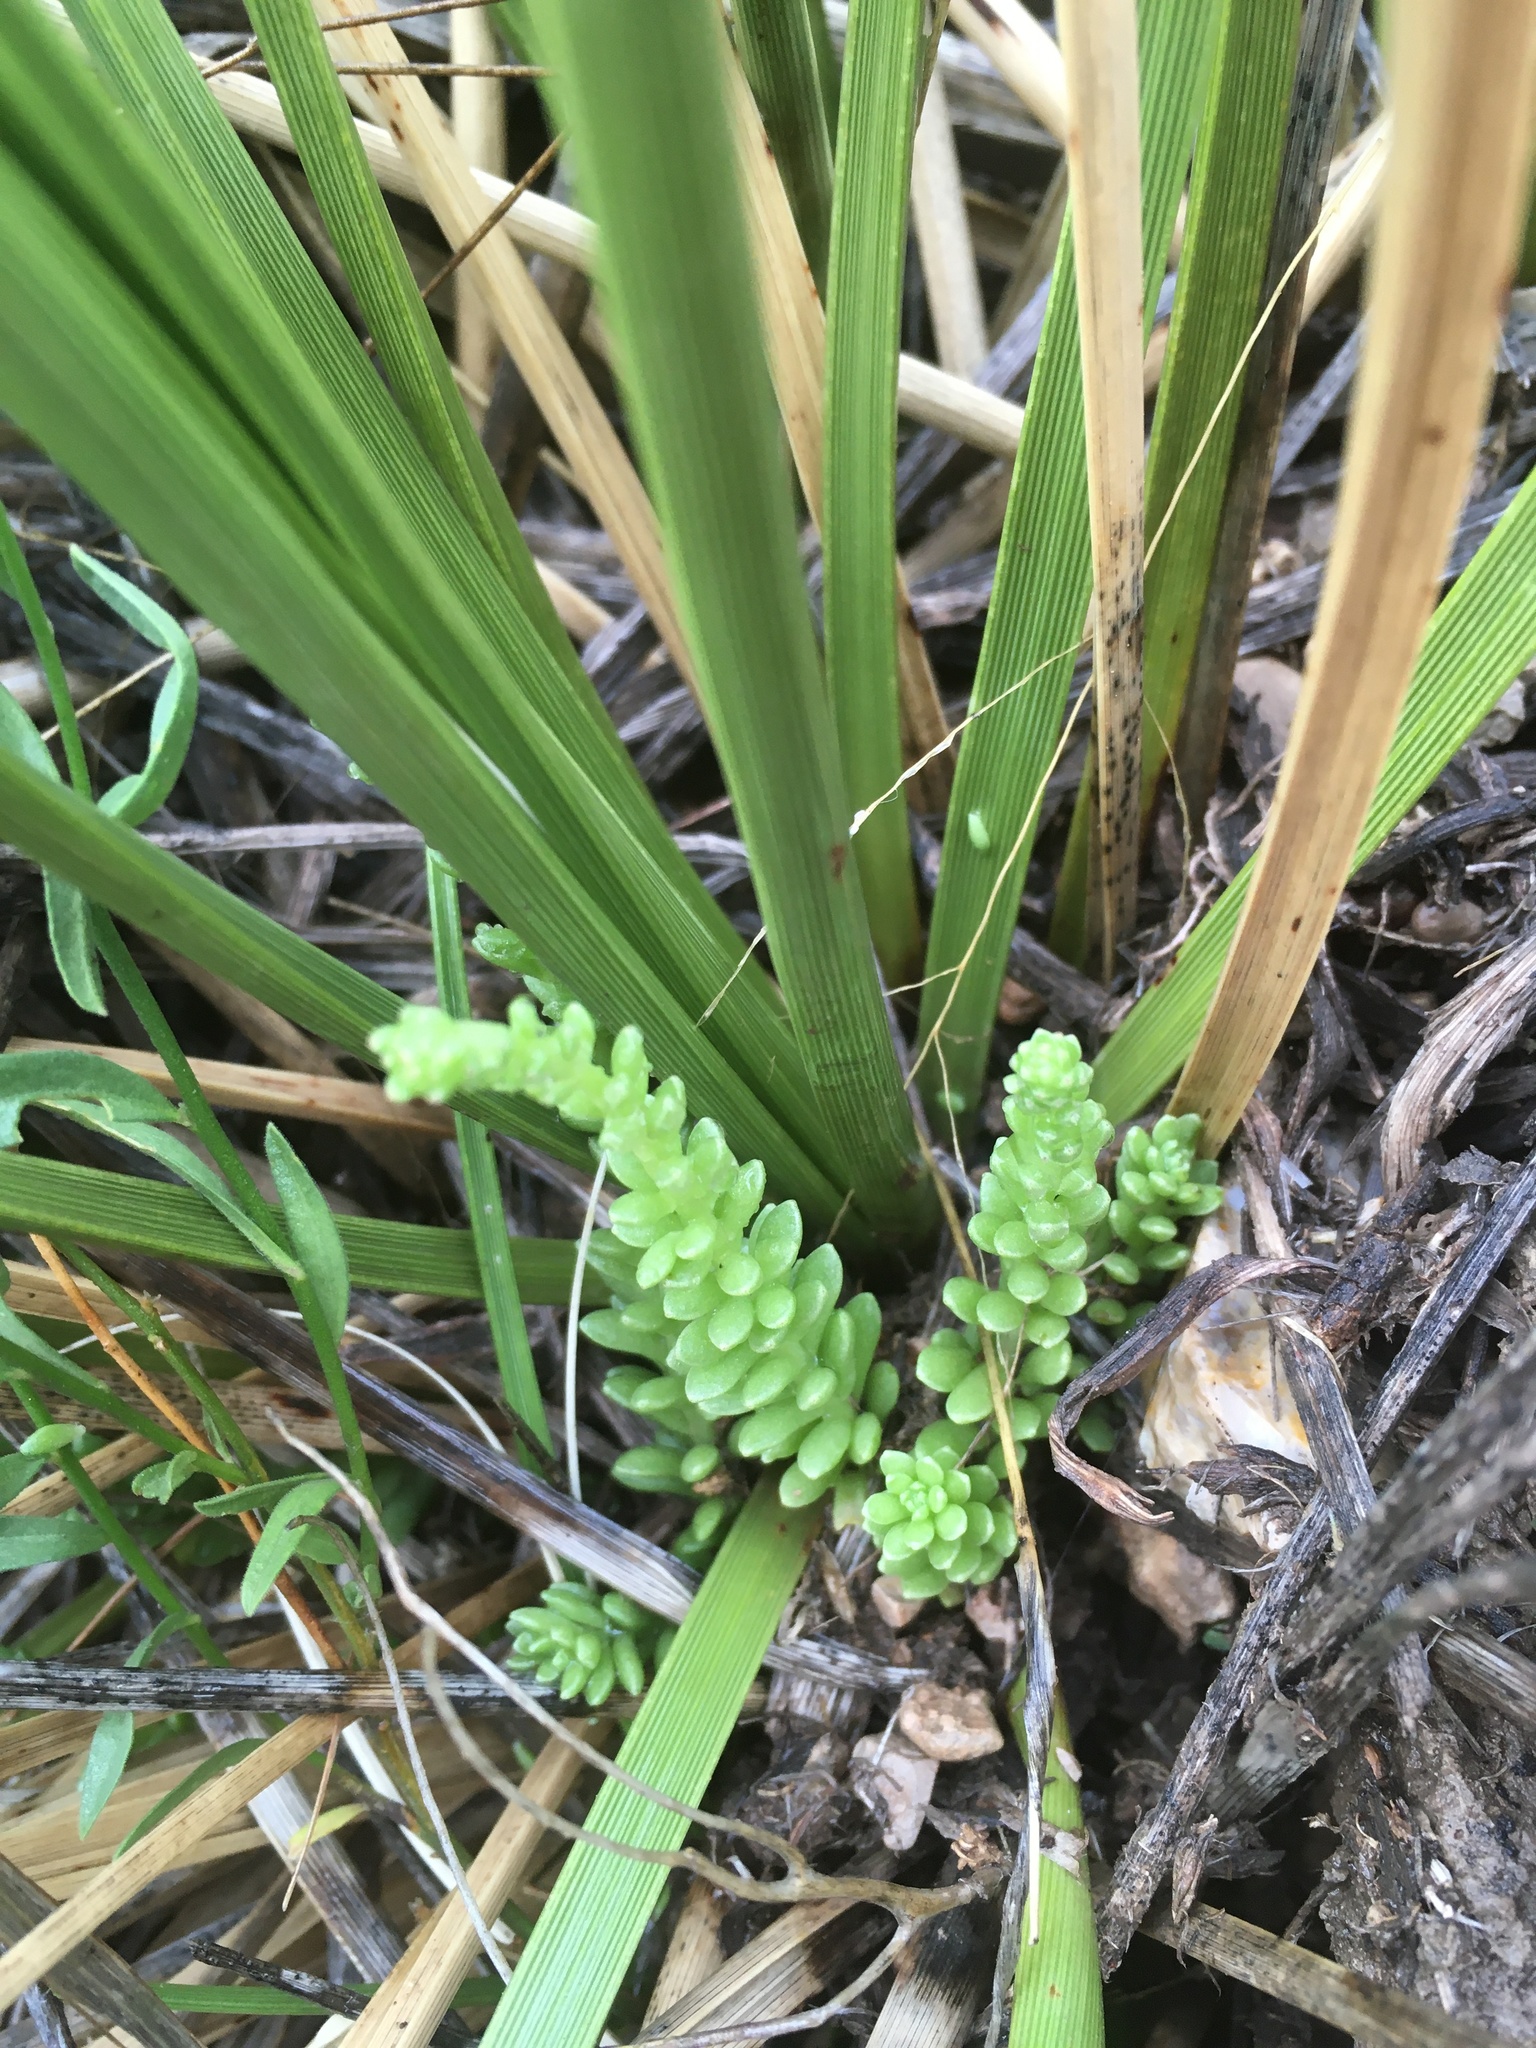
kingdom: Plantae
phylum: Tracheophyta
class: Magnoliopsida
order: Saxifragales
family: Crassulaceae
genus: Sedum
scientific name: Sedum wrightii
